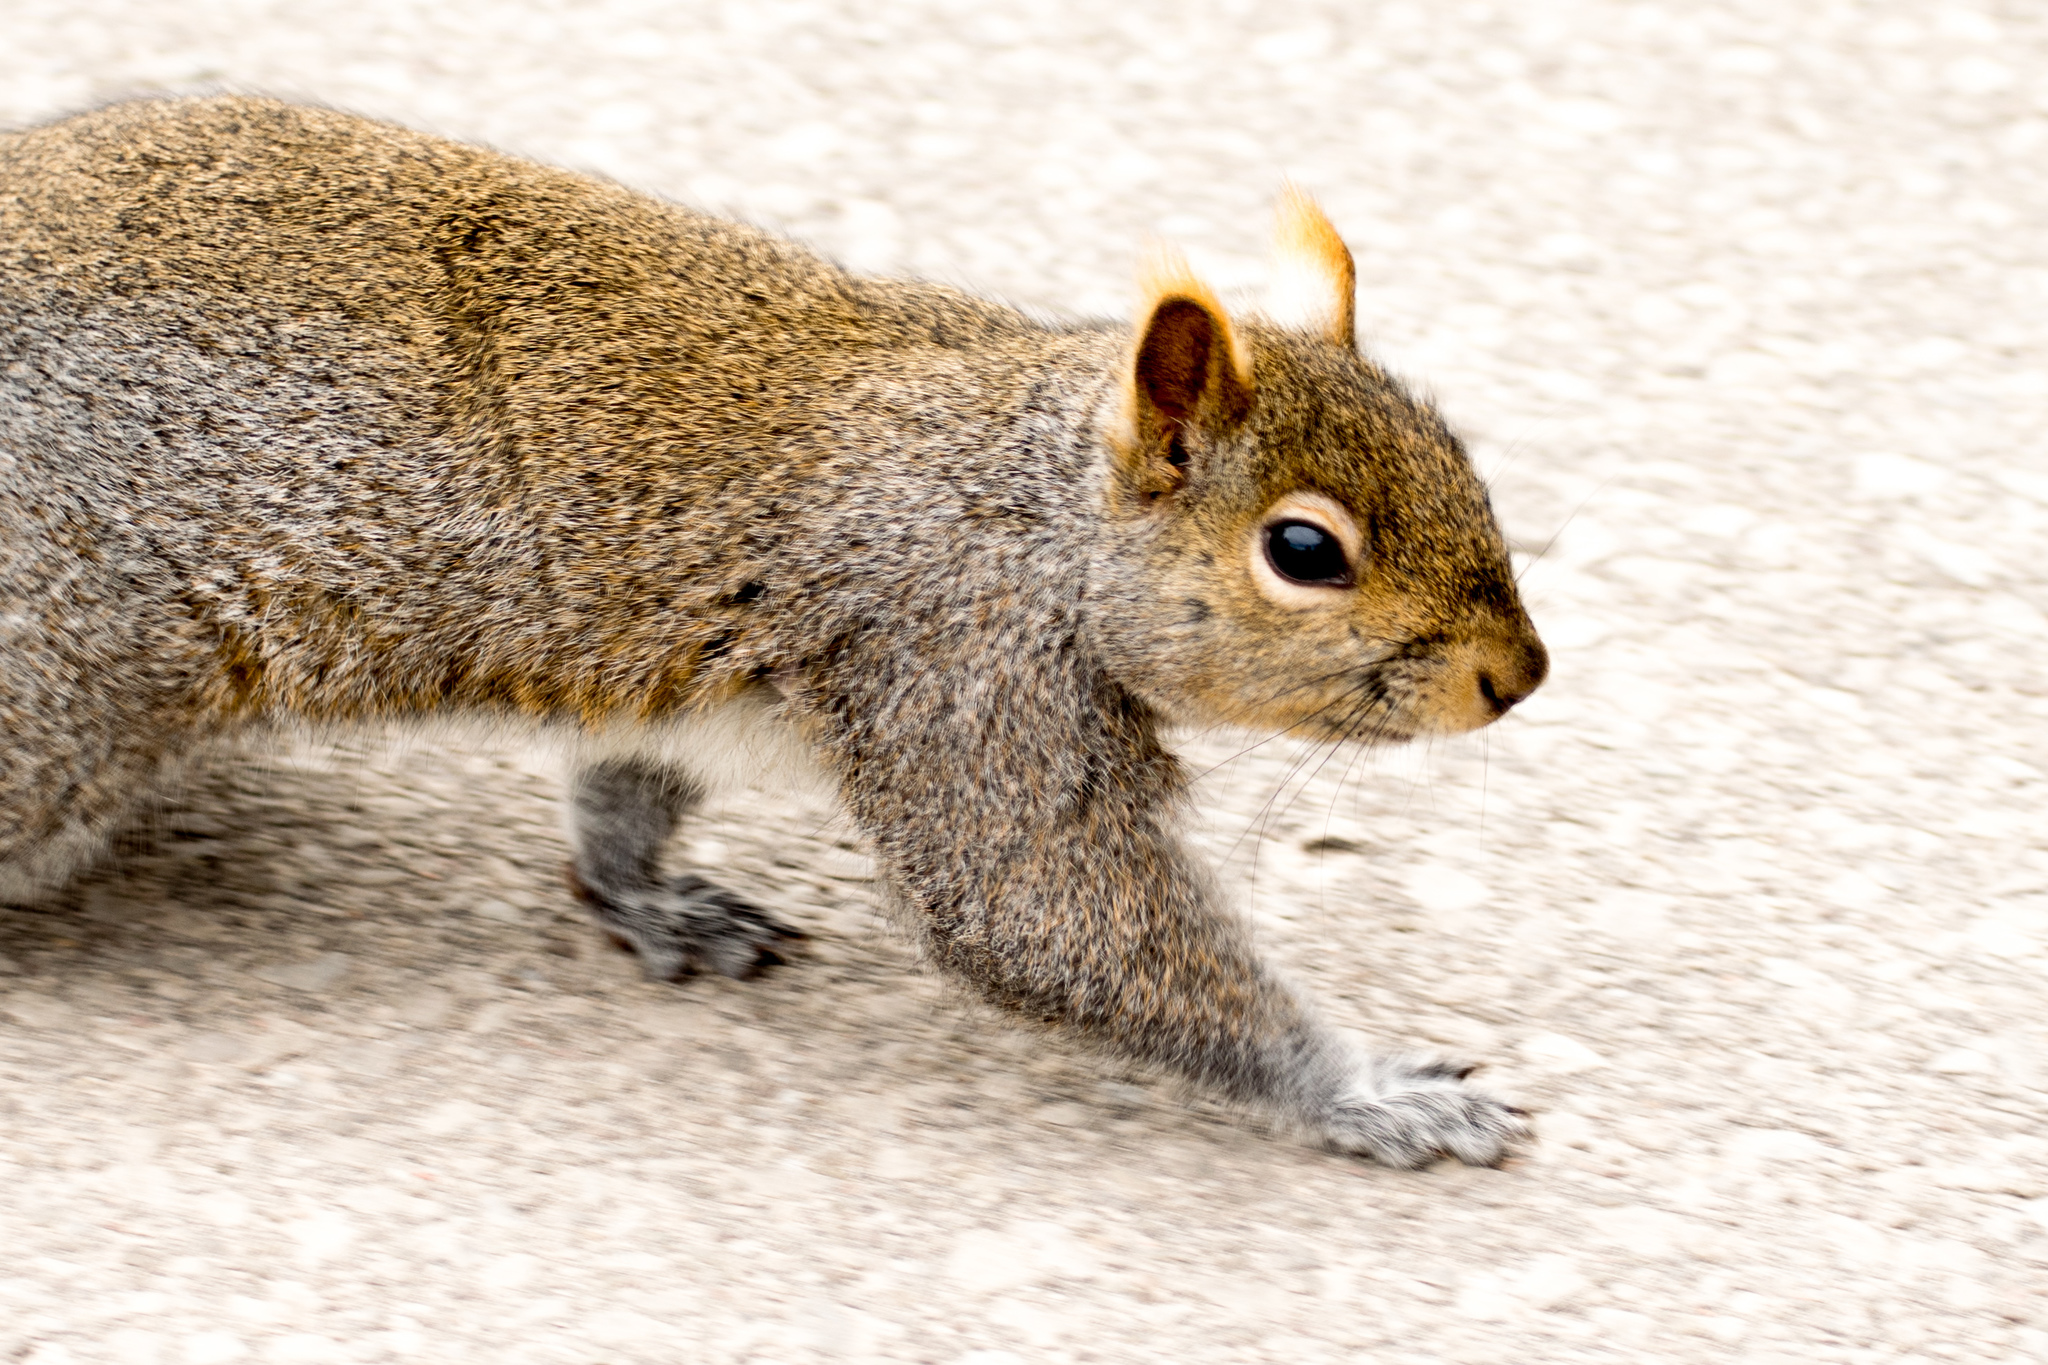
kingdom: Animalia
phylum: Chordata
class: Mammalia
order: Rodentia
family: Sciuridae
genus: Sciurus
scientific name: Sciurus carolinensis
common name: Eastern gray squirrel
